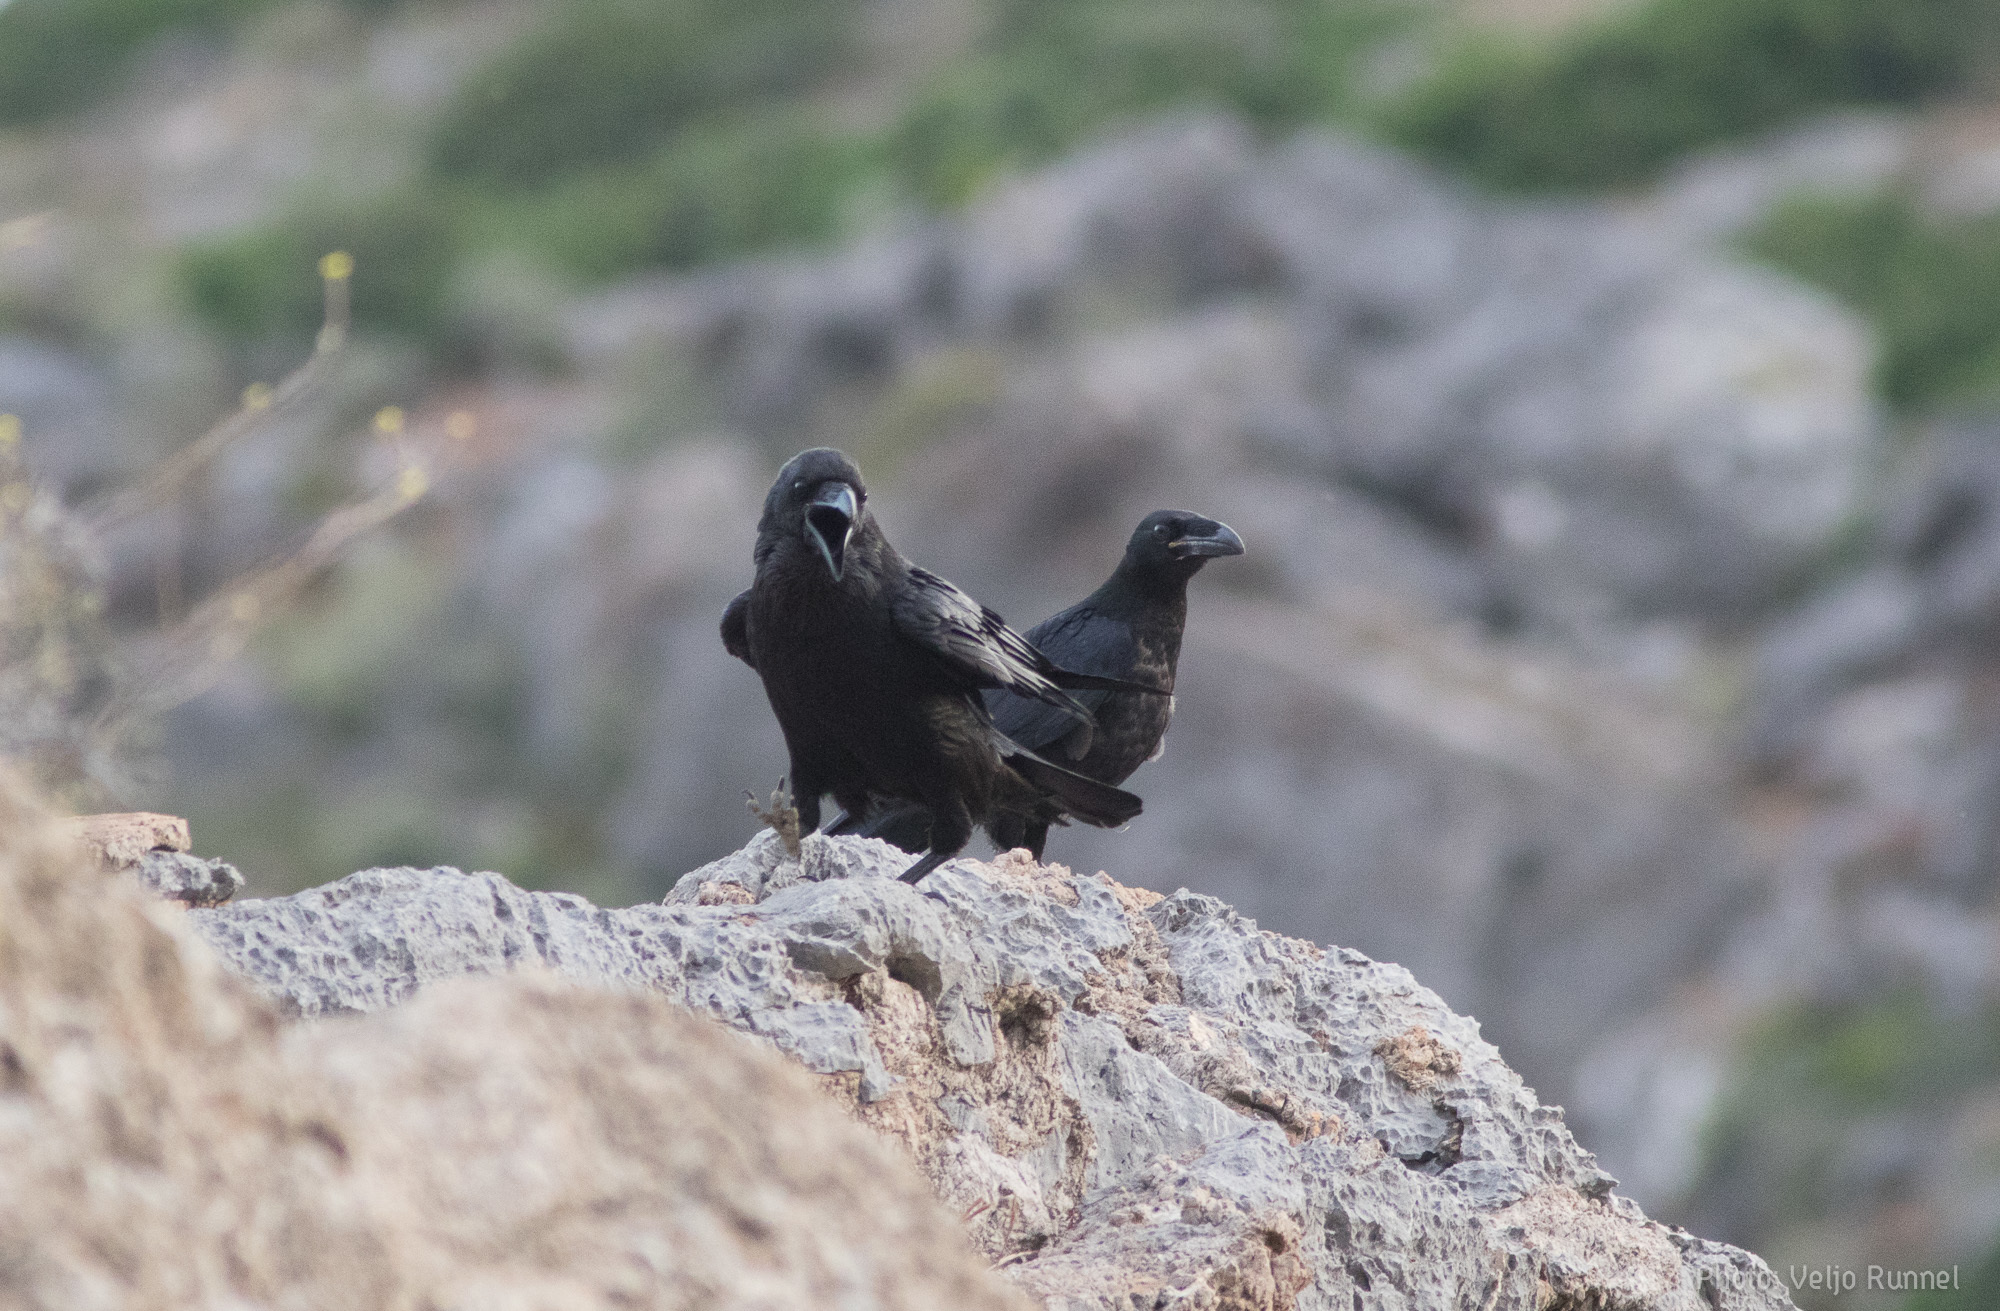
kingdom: Animalia
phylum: Chordata
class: Aves
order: Passeriformes
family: Corvidae
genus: Corvus
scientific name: Corvus corax
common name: Common raven
